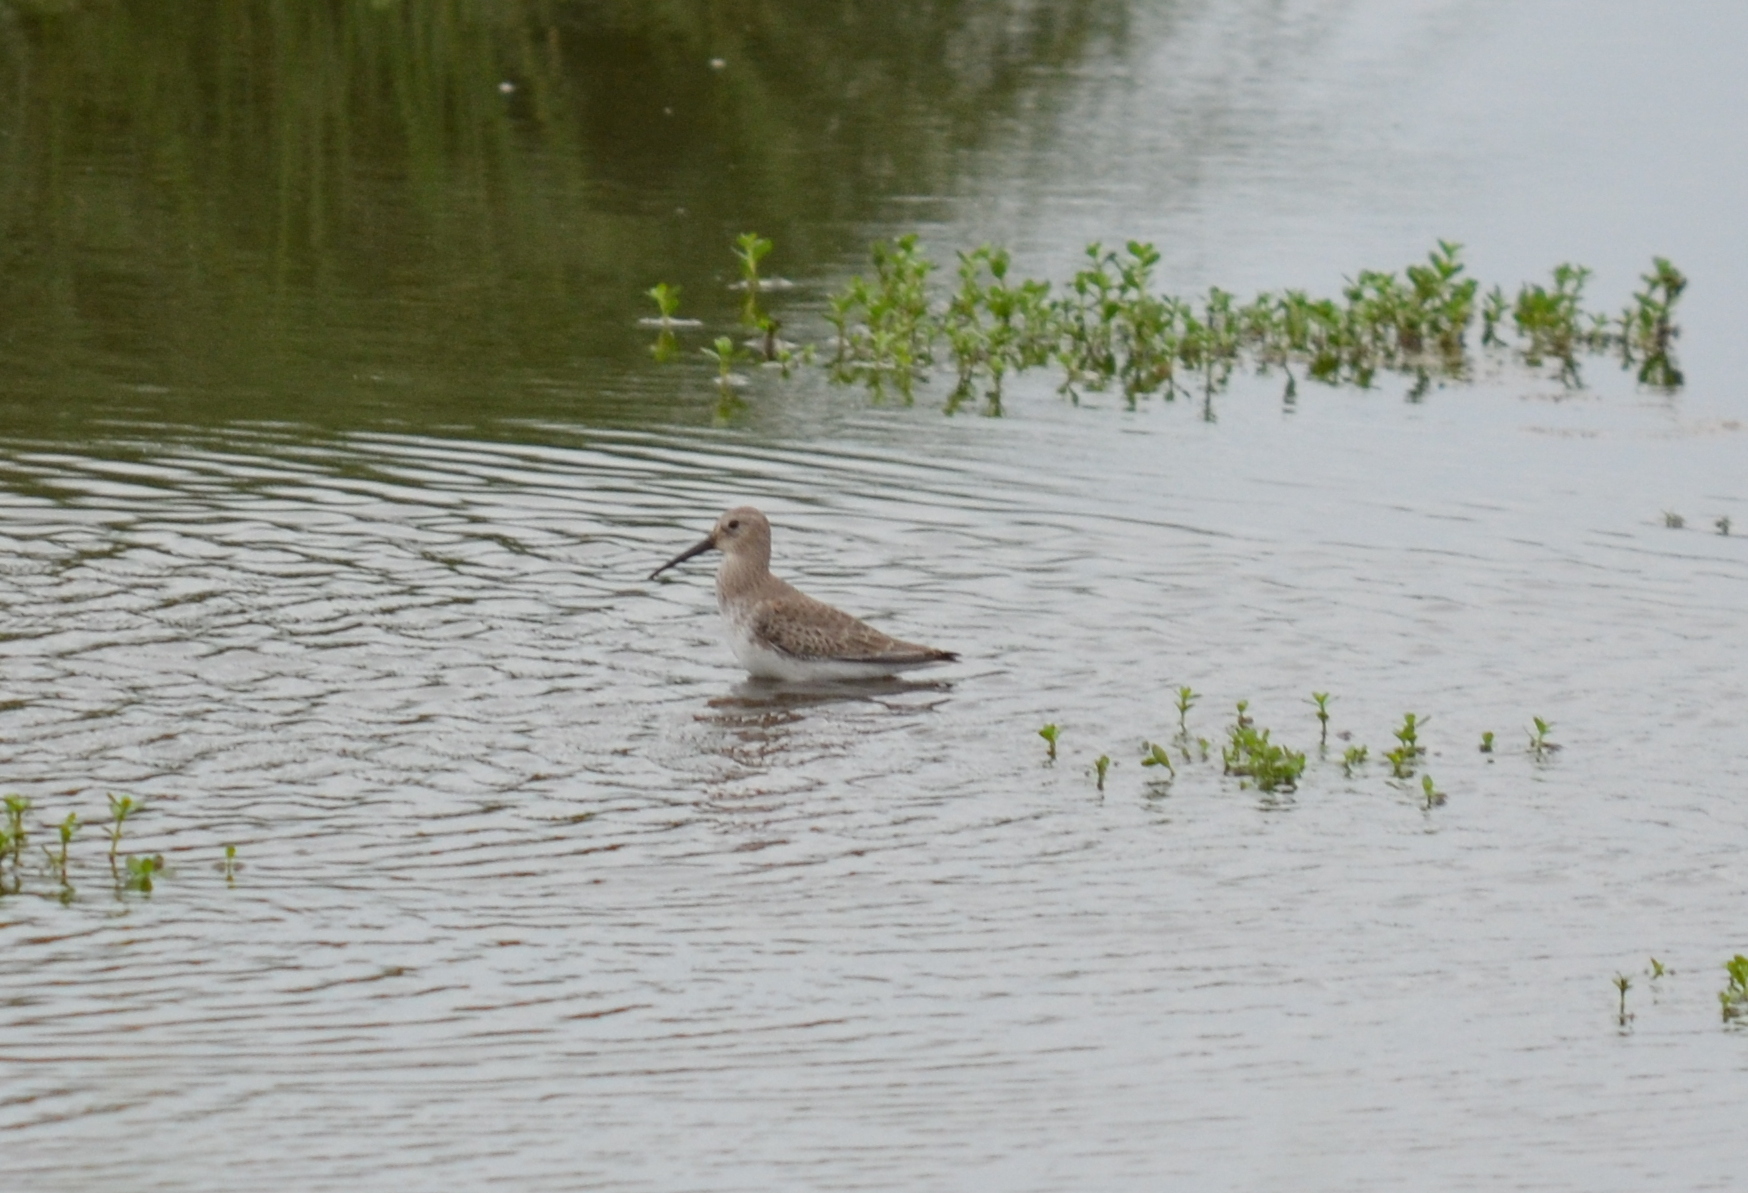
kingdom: Animalia
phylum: Chordata
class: Aves
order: Charadriiformes
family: Scolopacidae
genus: Calidris
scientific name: Calidris alpina
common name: Dunlin
